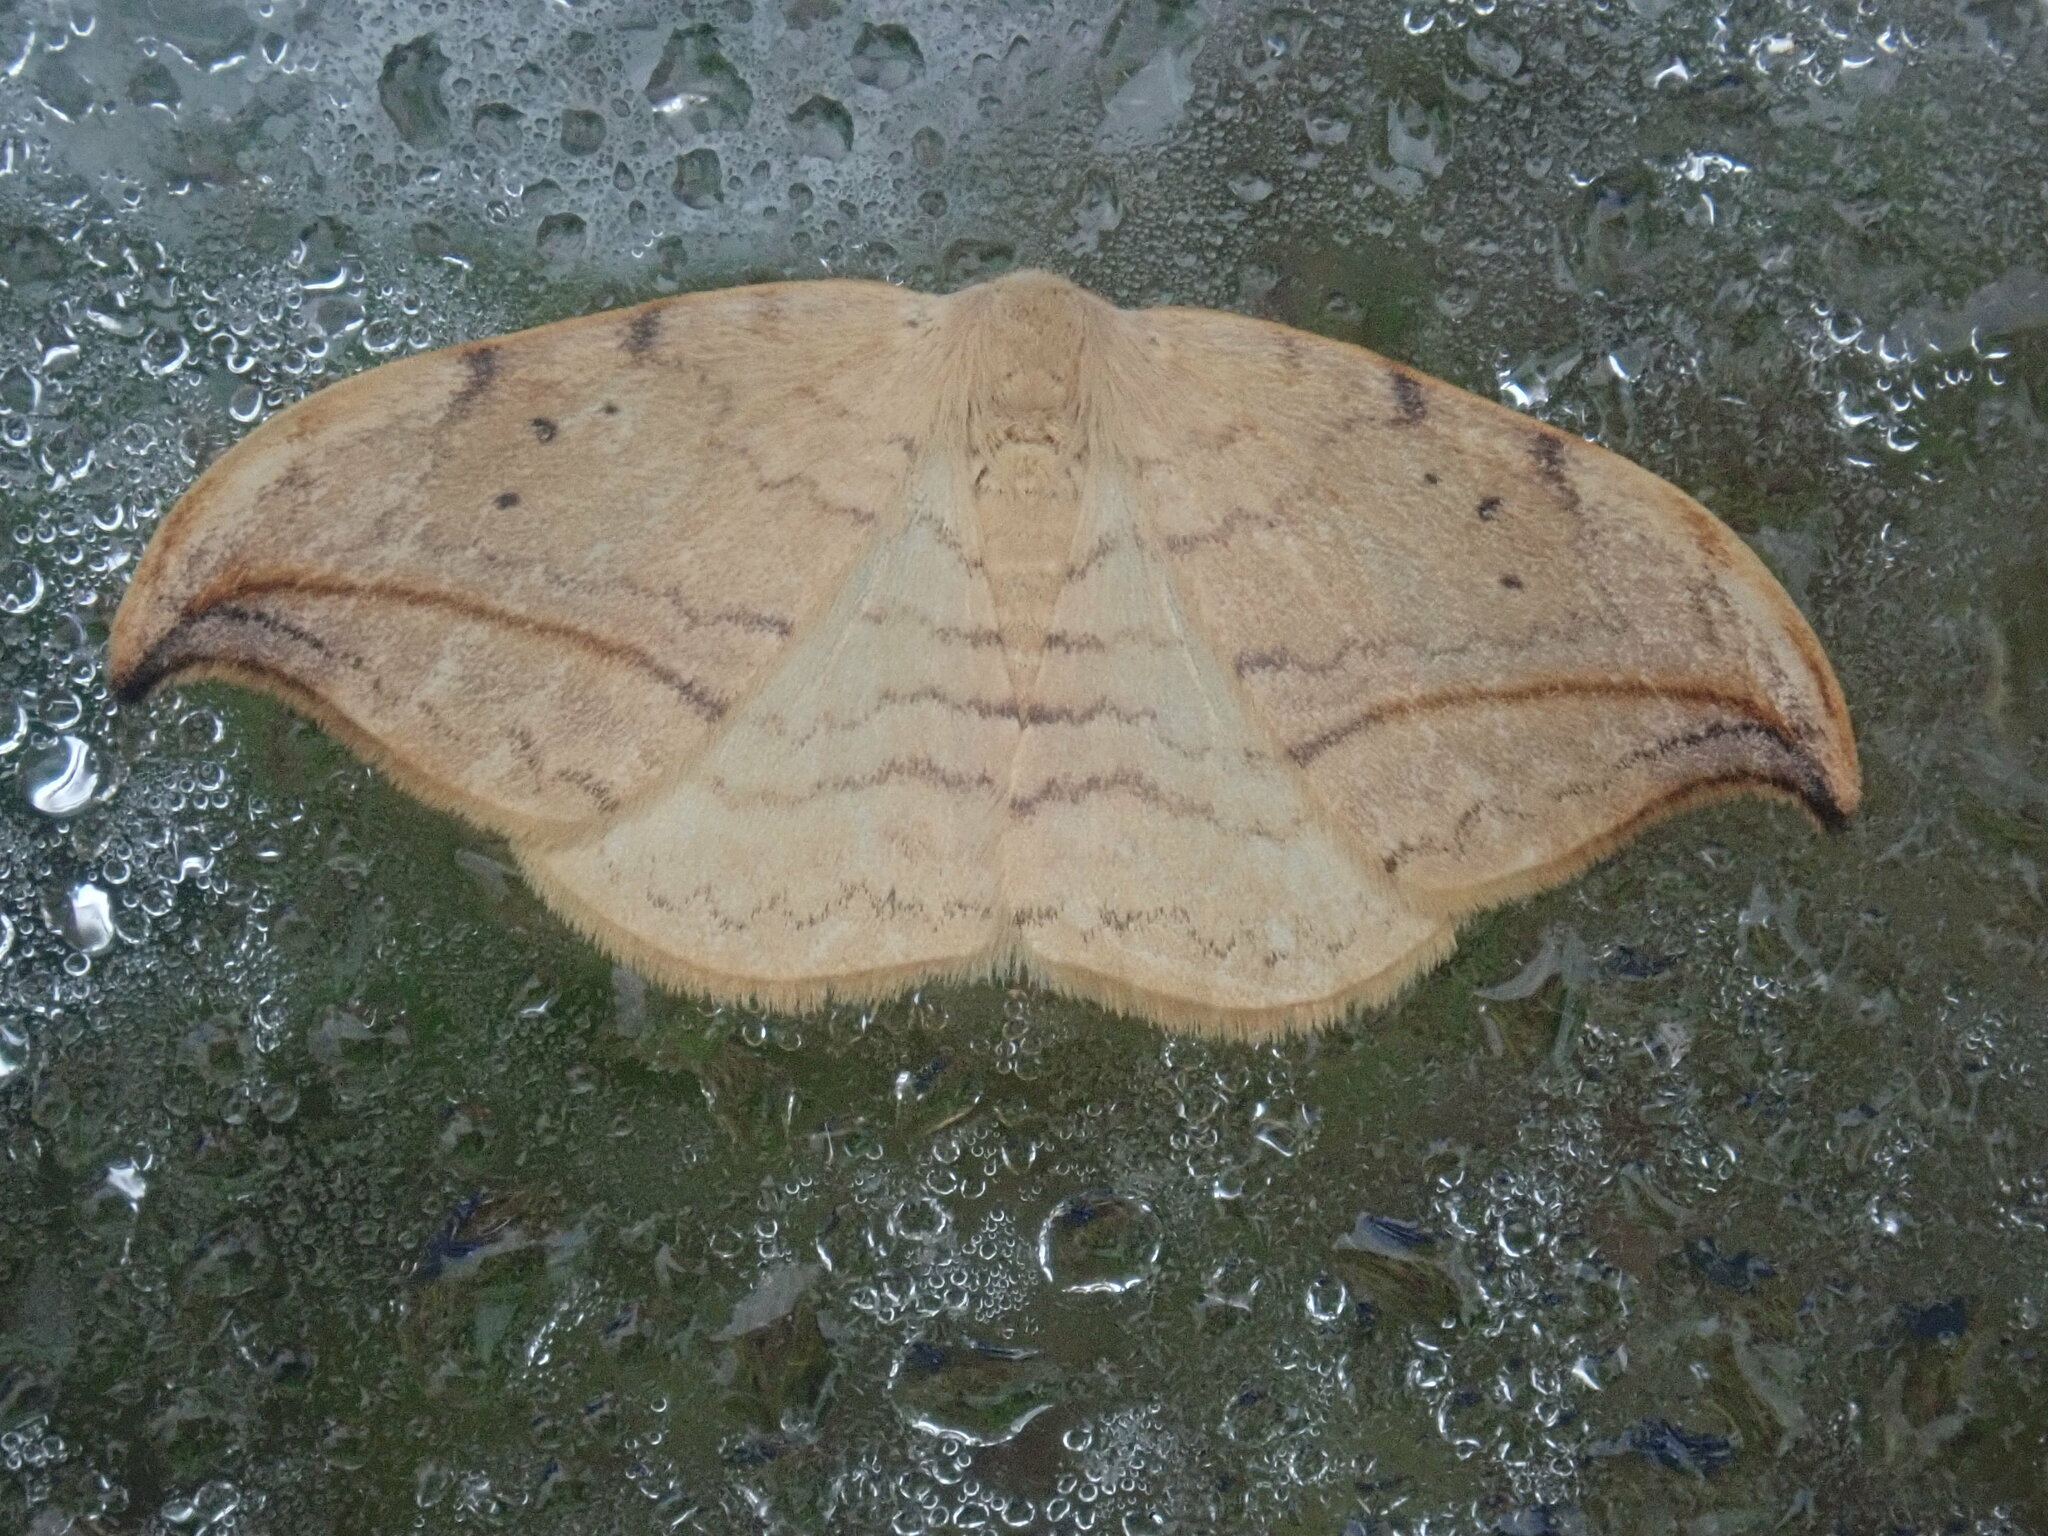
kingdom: Animalia
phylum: Arthropoda
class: Insecta
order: Lepidoptera
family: Drepanidae
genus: Drepana
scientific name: Drepana arcuata
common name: Arched hooktip moth
